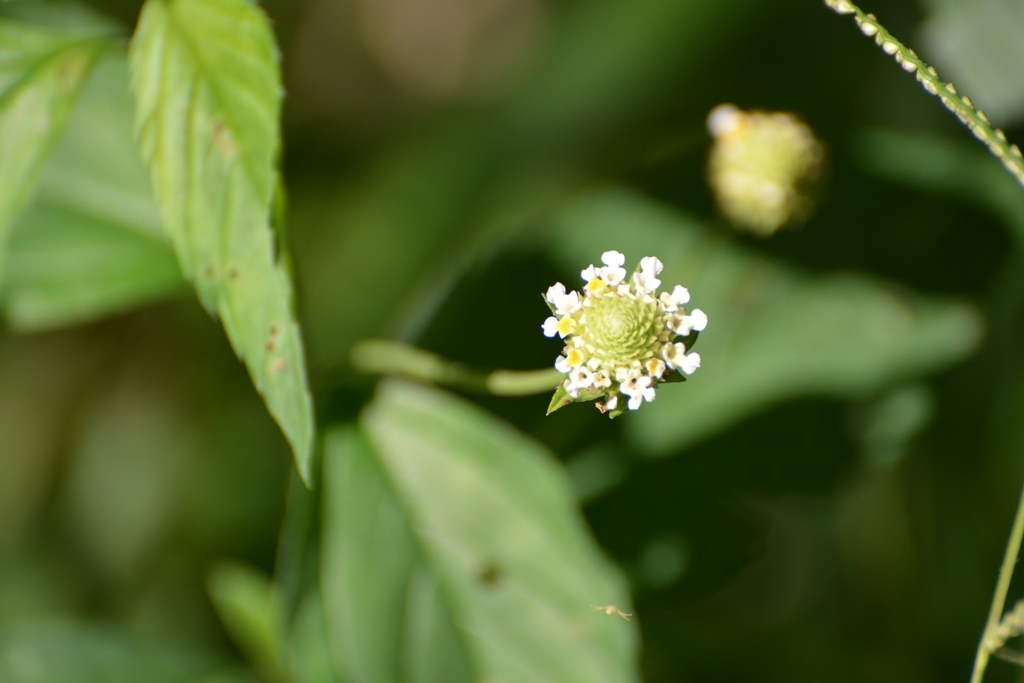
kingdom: Plantae
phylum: Tracheophyta
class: Magnoliopsida
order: Lamiales
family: Verbenaceae
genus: Lippia
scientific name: Lippia dulcis
